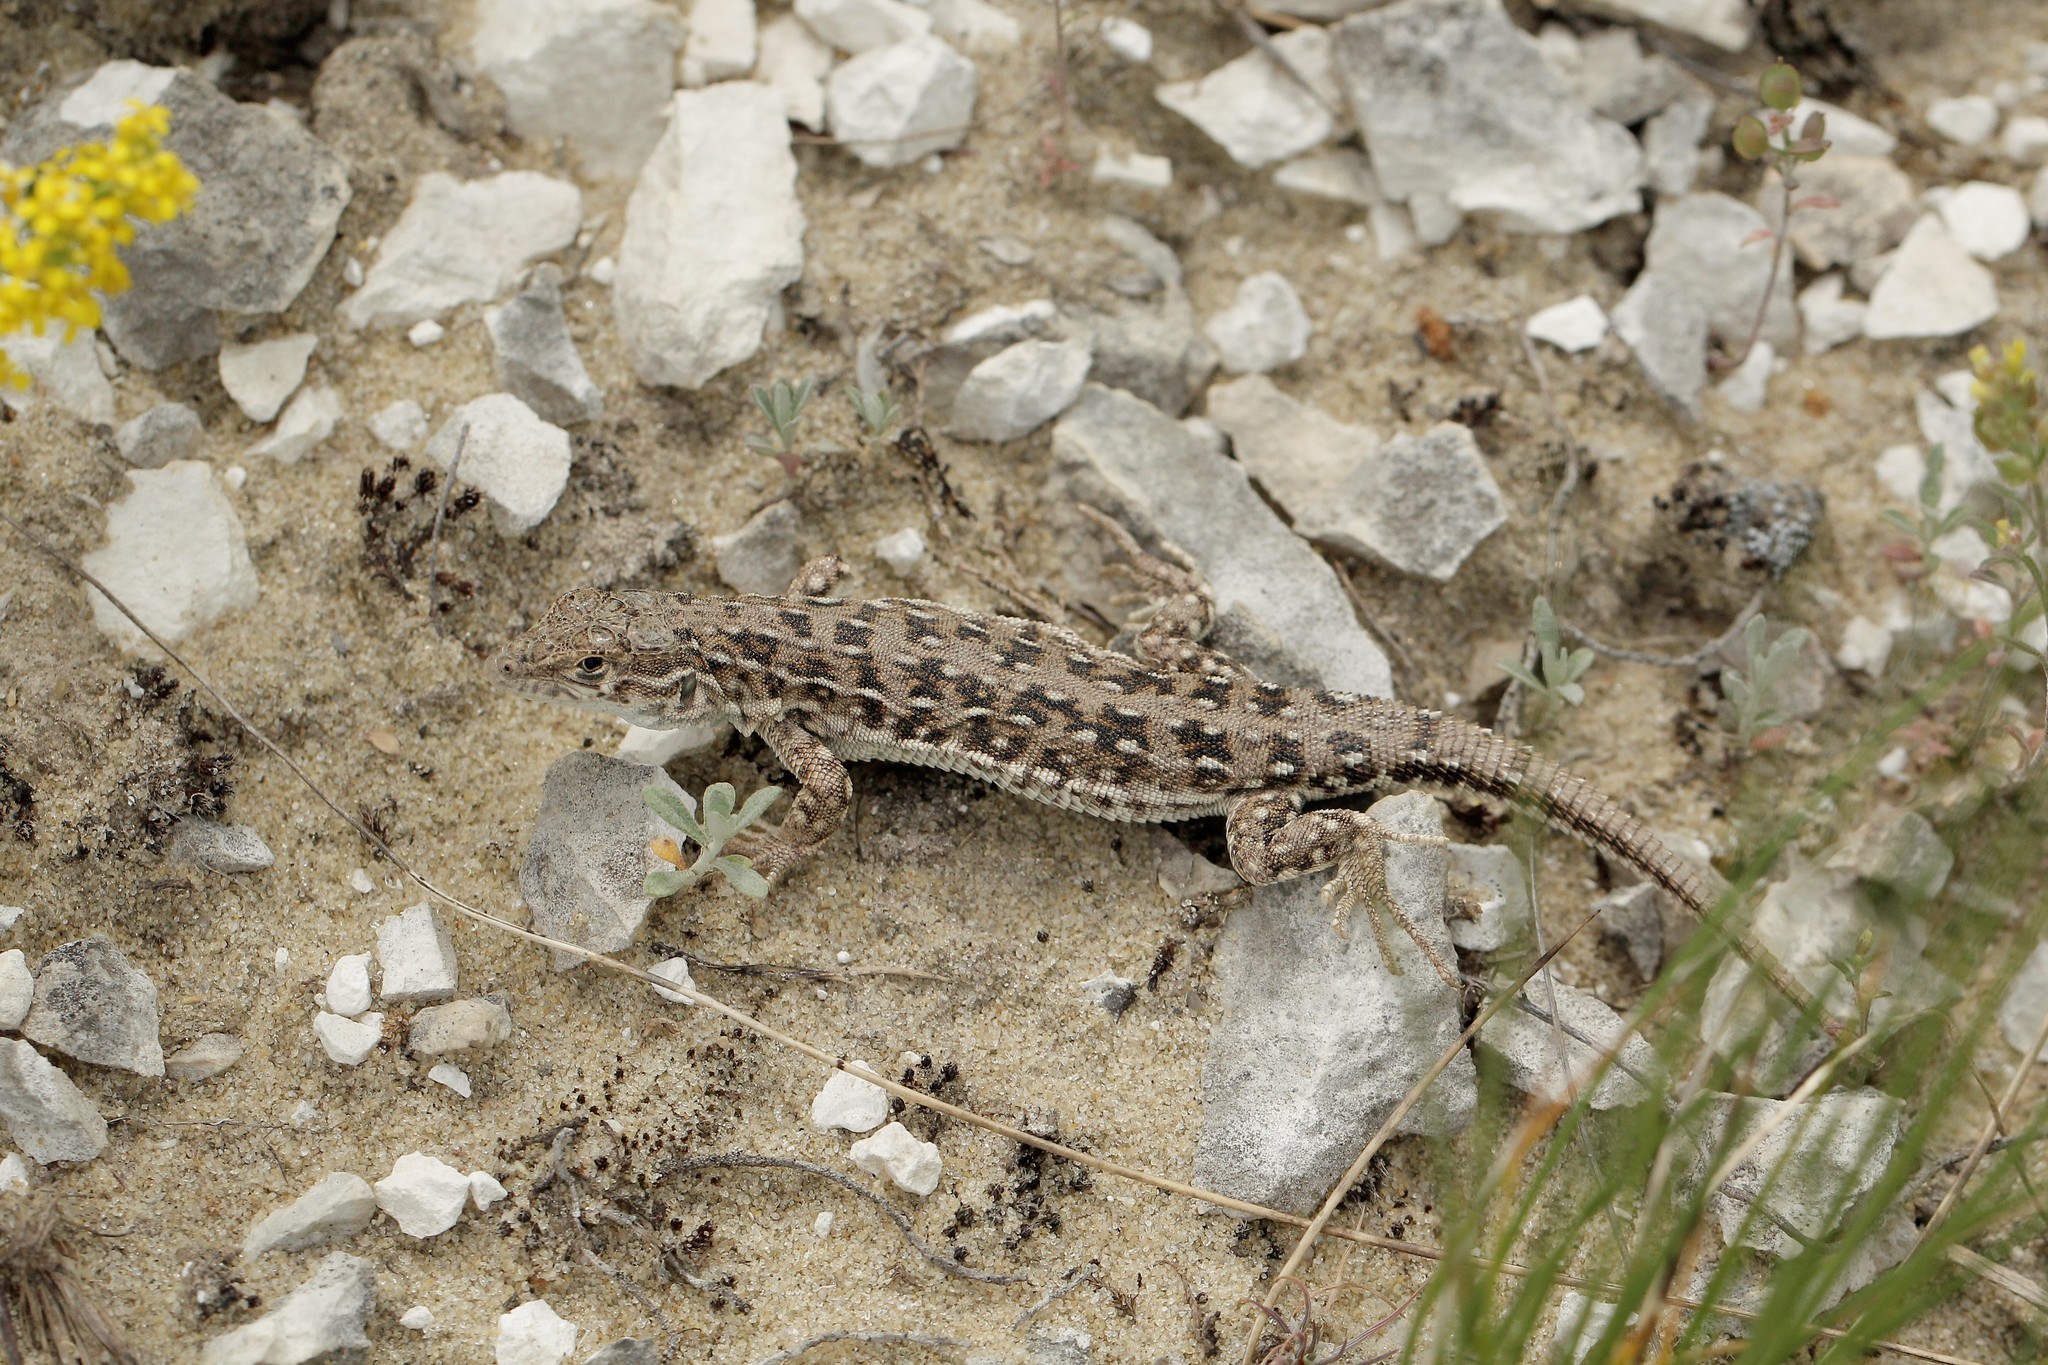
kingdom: Animalia
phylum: Chordata
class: Squamata
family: Lacertidae
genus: Eremias
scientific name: Eremias arguta
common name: Racerunner
